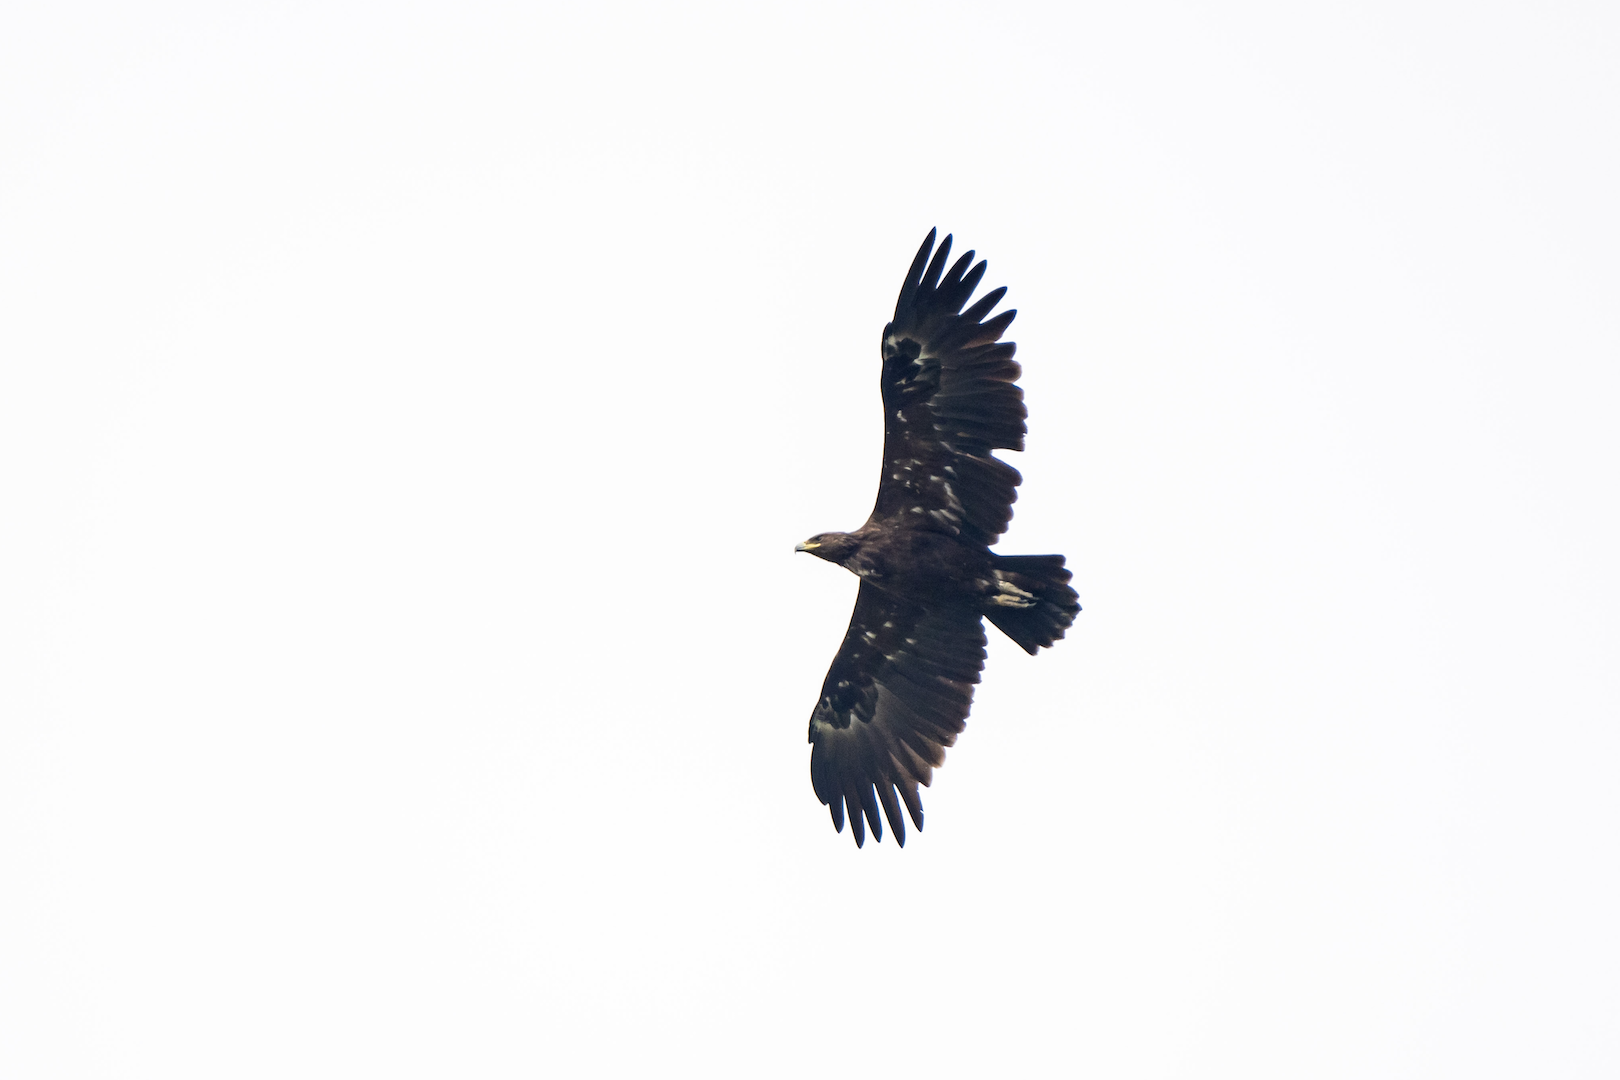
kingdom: Animalia
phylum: Chordata
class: Aves
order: Accipitriformes
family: Accipitridae
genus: Aquila
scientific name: Aquila clanga
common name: Greater spotted eagle
